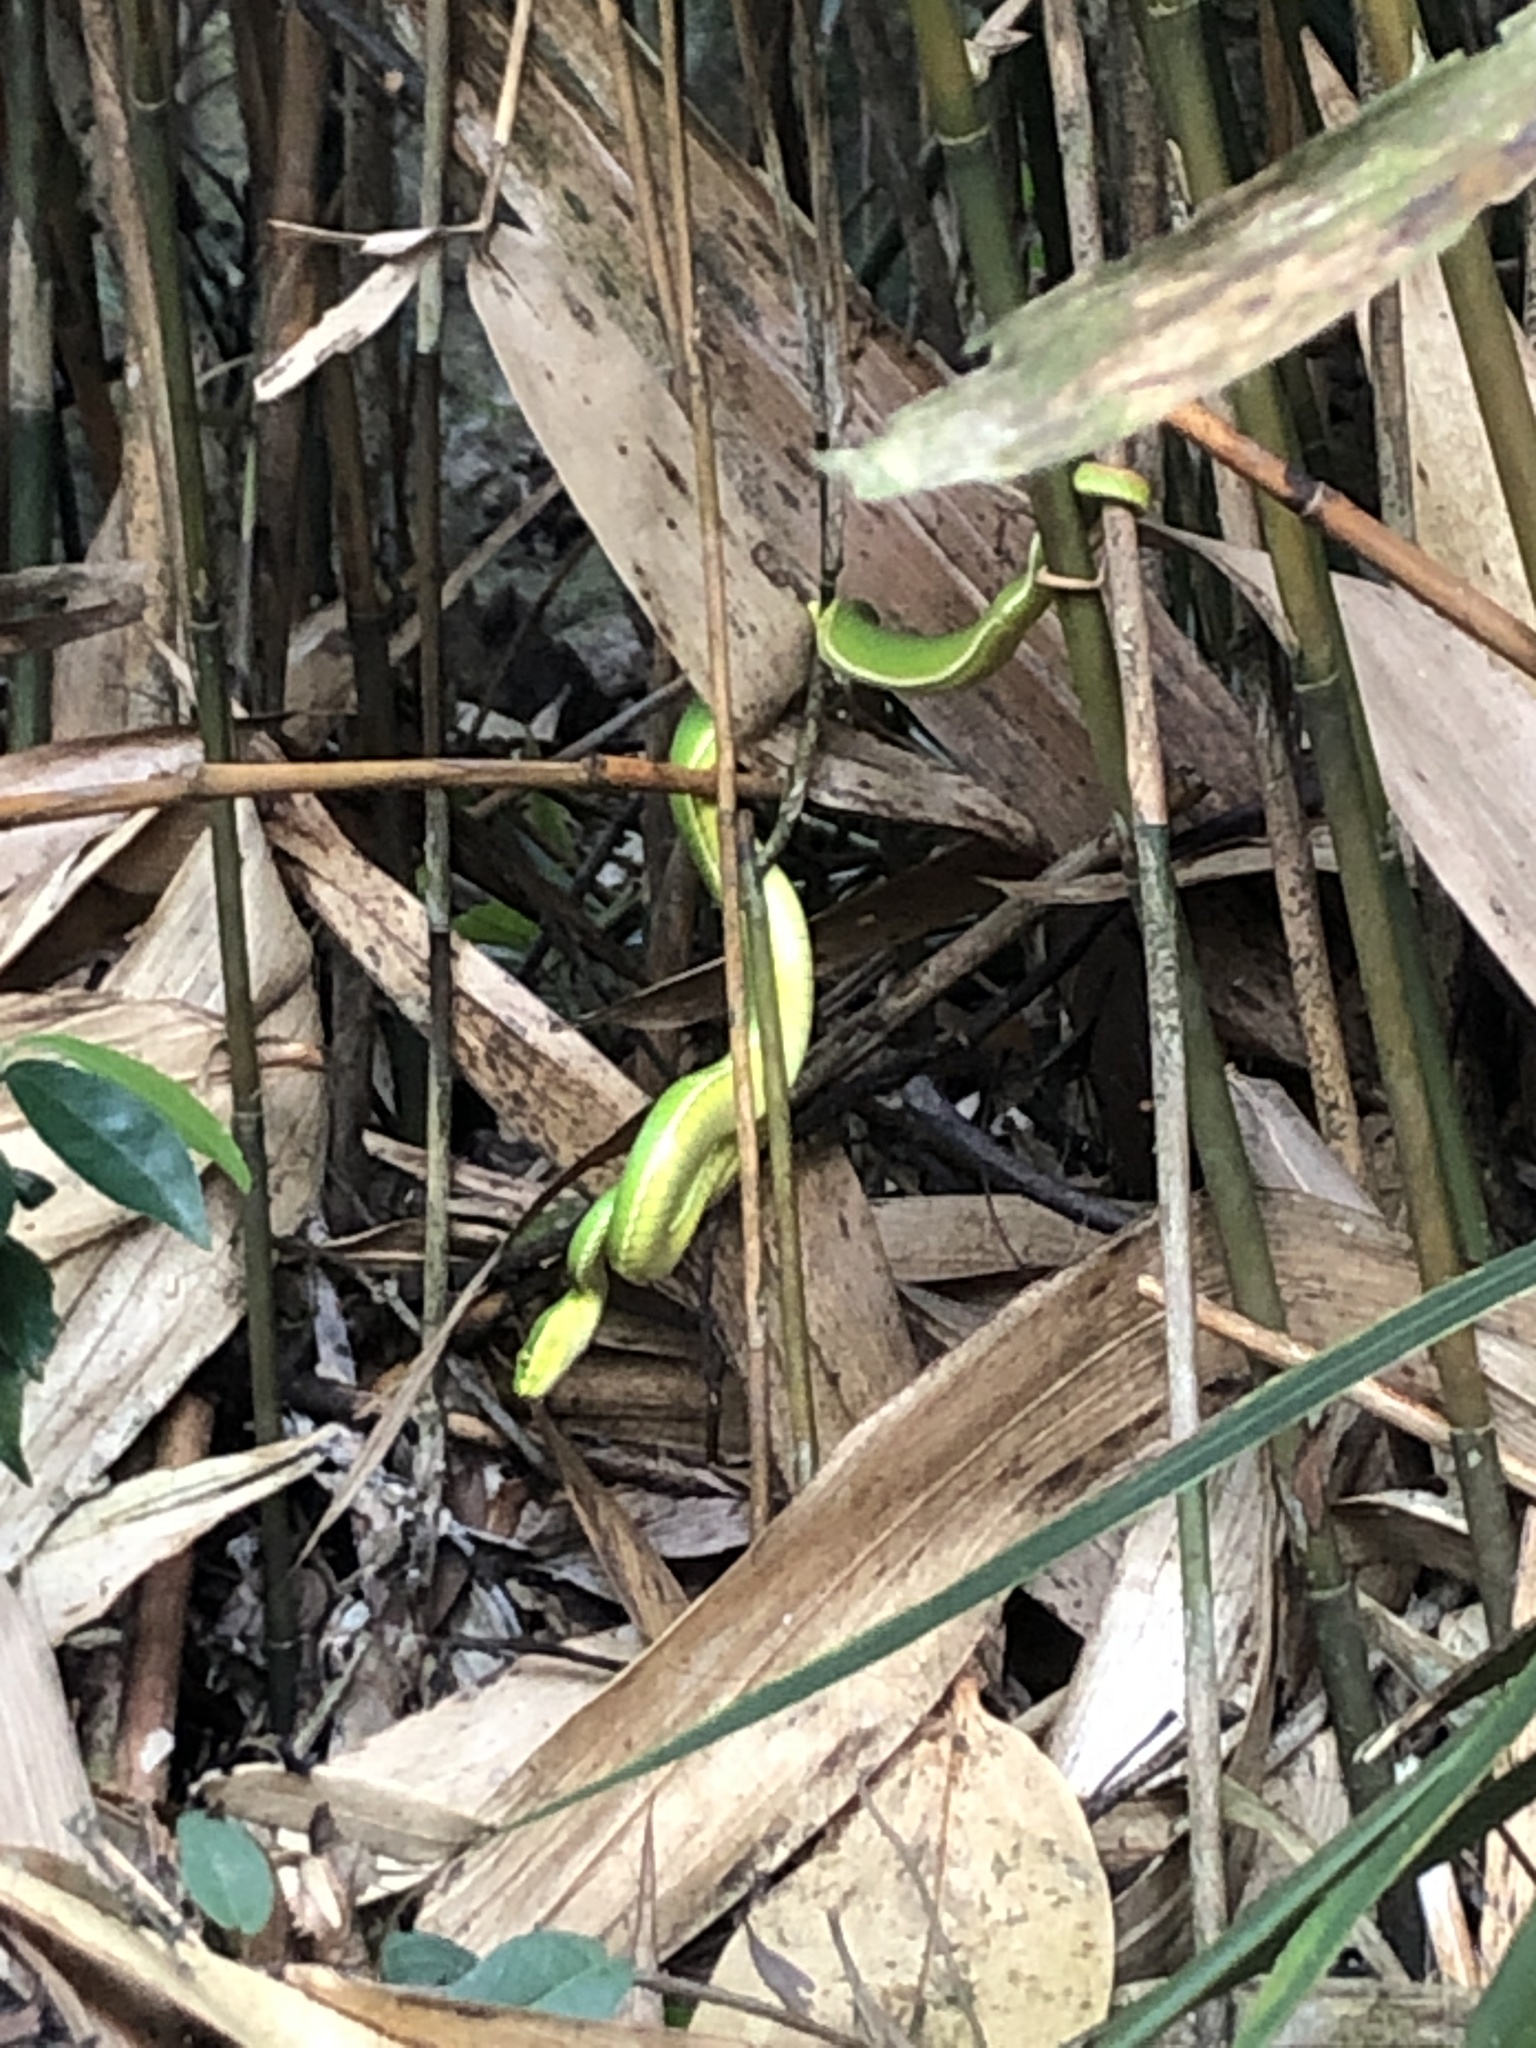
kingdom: Animalia
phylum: Chordata
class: Squamata
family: Viperidae
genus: Trimeresurus
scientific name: Trimeresurus albolabris
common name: White-lipped pitviper
